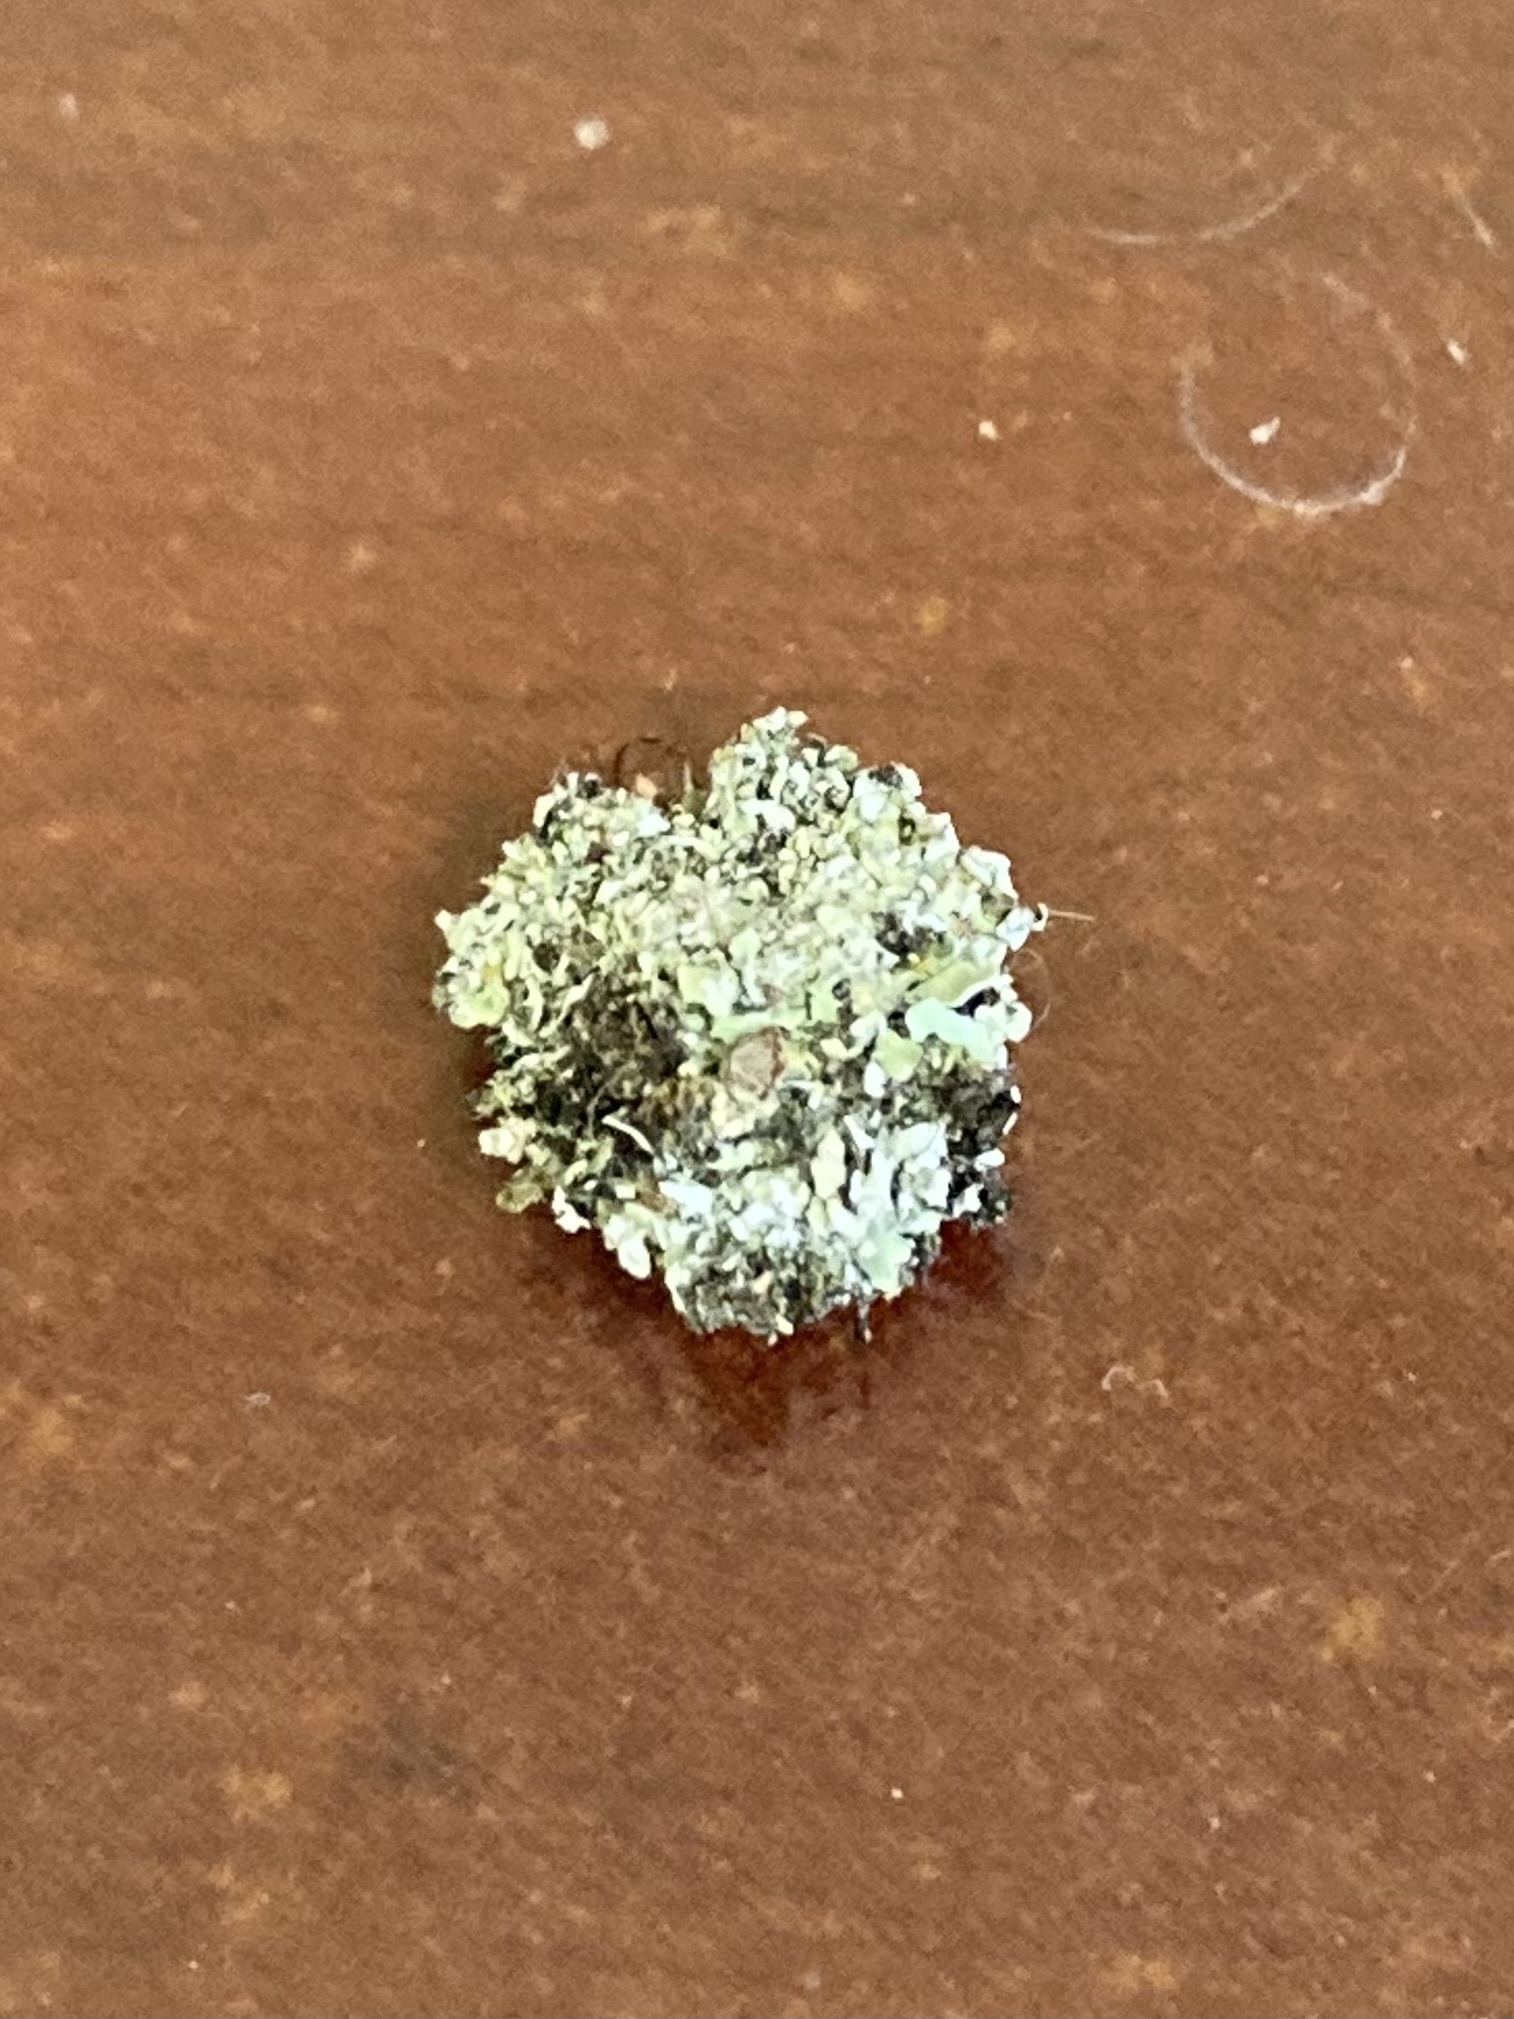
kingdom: Animalia
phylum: Arthropoda
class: Insecta
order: Neuroptera
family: Chrysopidae
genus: Leucochrysa
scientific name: Leucochrysa pavida
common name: Lichen-carrying green lacewing
